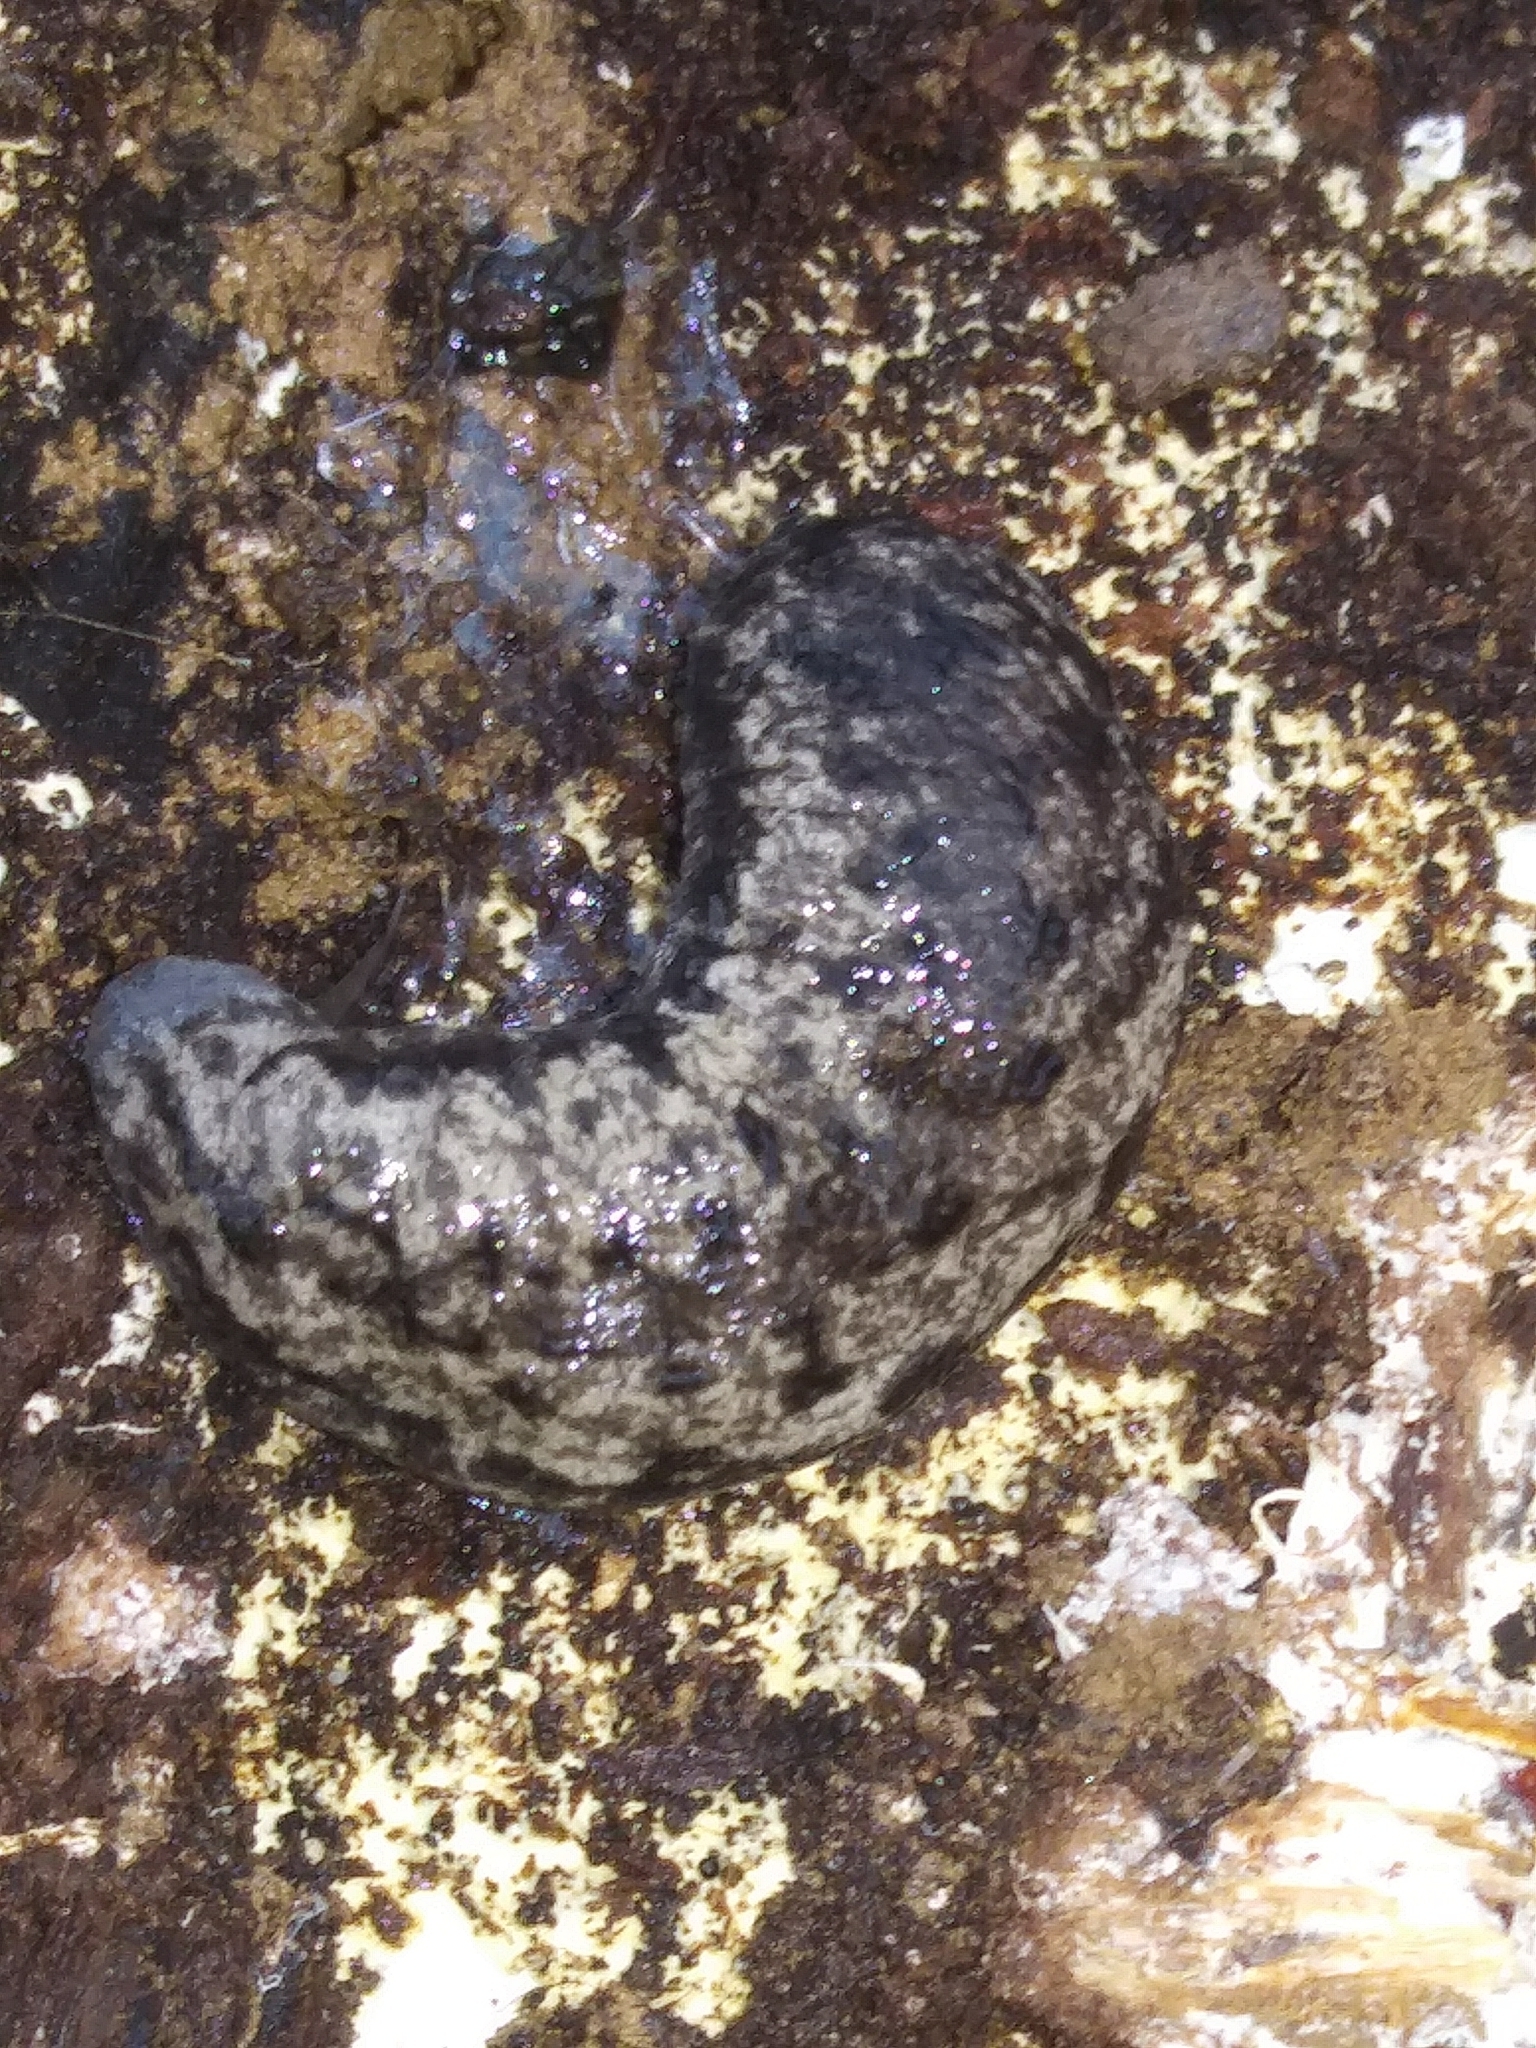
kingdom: Animalia
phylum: Mollusca
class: Gastropoda
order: Stylommatophora
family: Philomycidae
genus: Megapallifera
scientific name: Megapallifera mutabilis
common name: Changeable mantleslug
